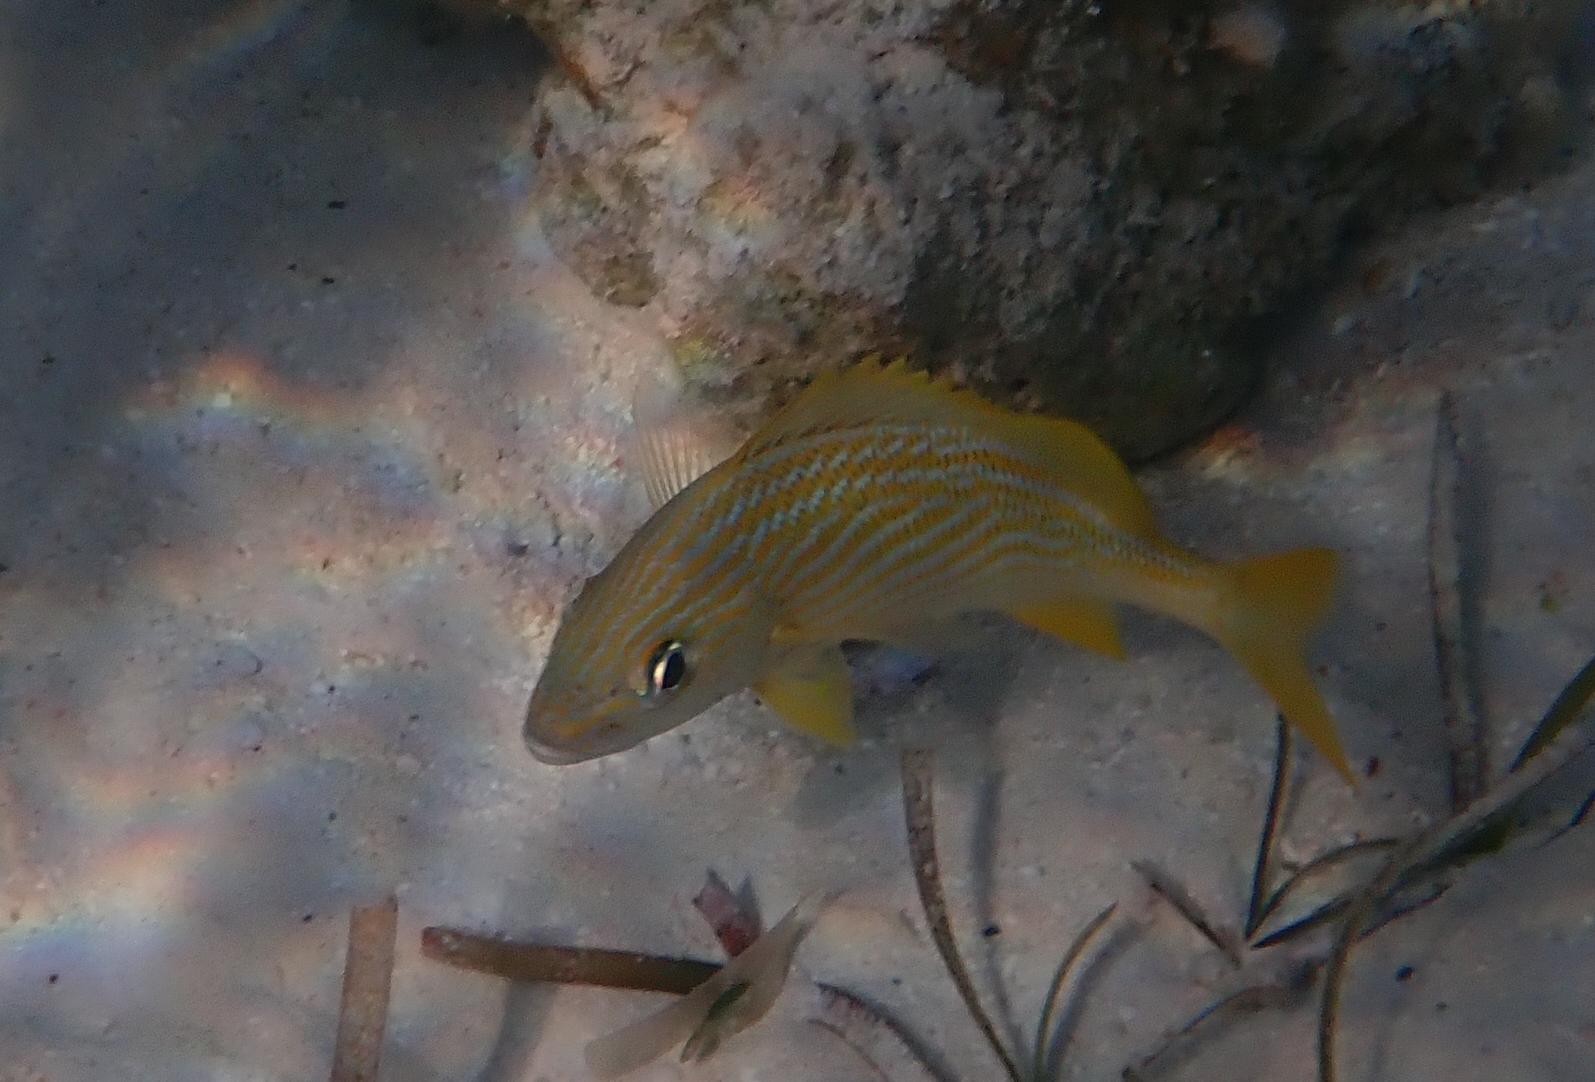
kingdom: Animalia
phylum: Chordata
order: Perciformes
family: Haemulidae
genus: Haemulon
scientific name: Haemulon flavolineatum
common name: French grunt
